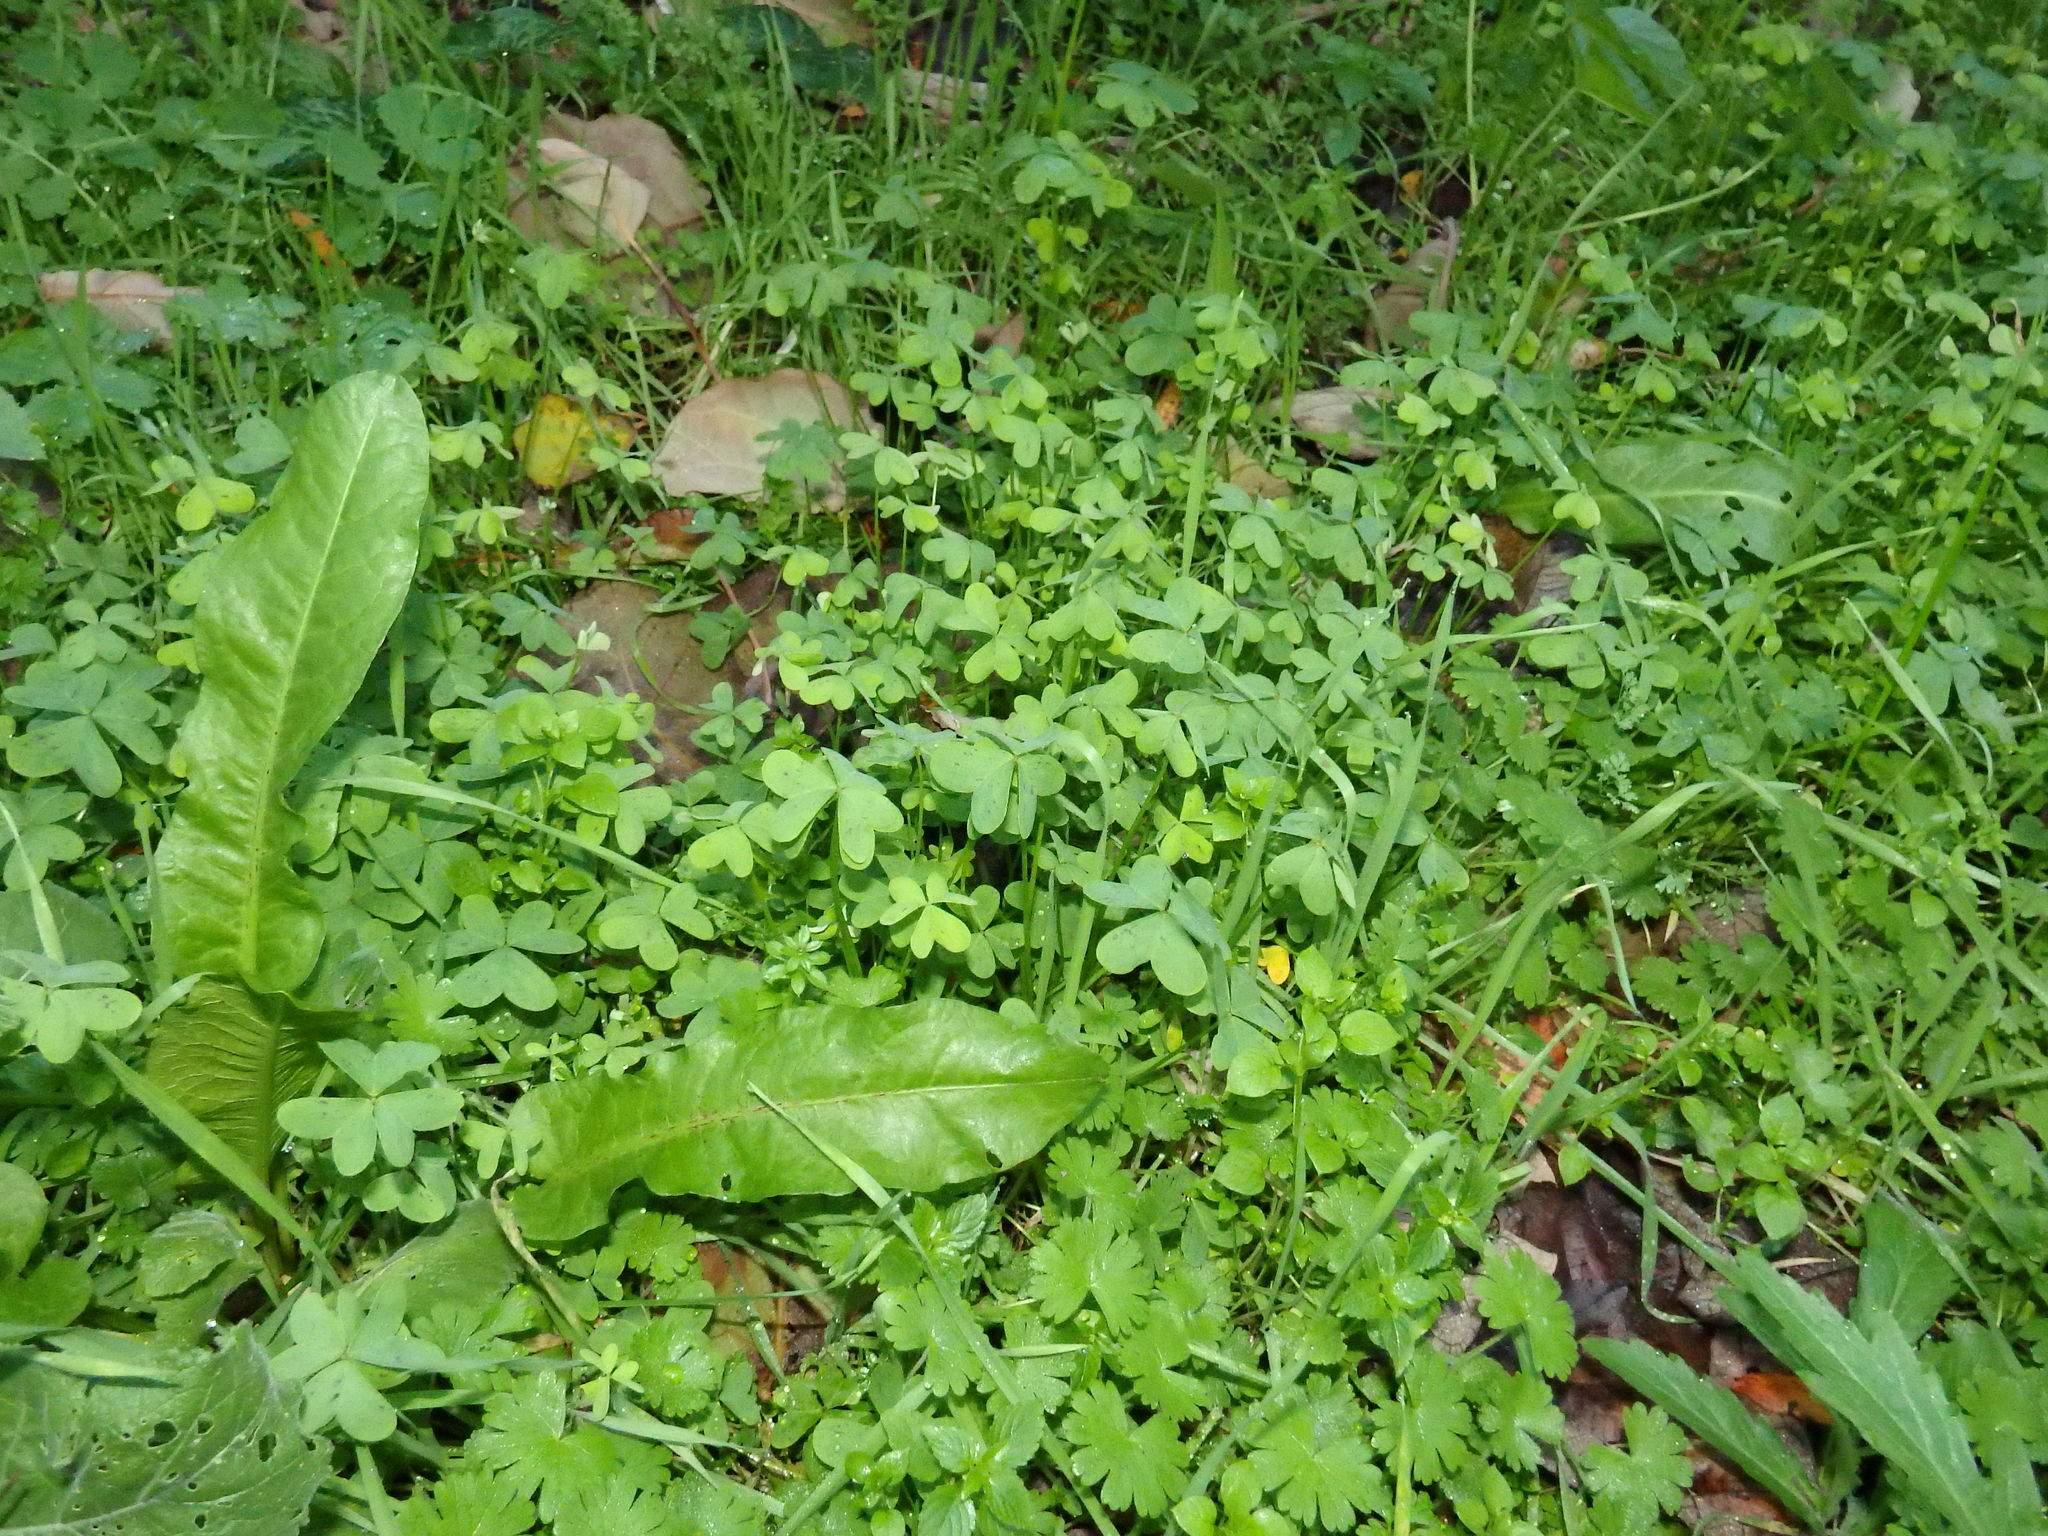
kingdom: Plantae
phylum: Tracheophyta
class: Magnoliopsida
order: Oxalidales
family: Oxalidaceae
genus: Oxalis
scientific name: Oxalis pes-caprae
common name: Bermuda-buttercup
